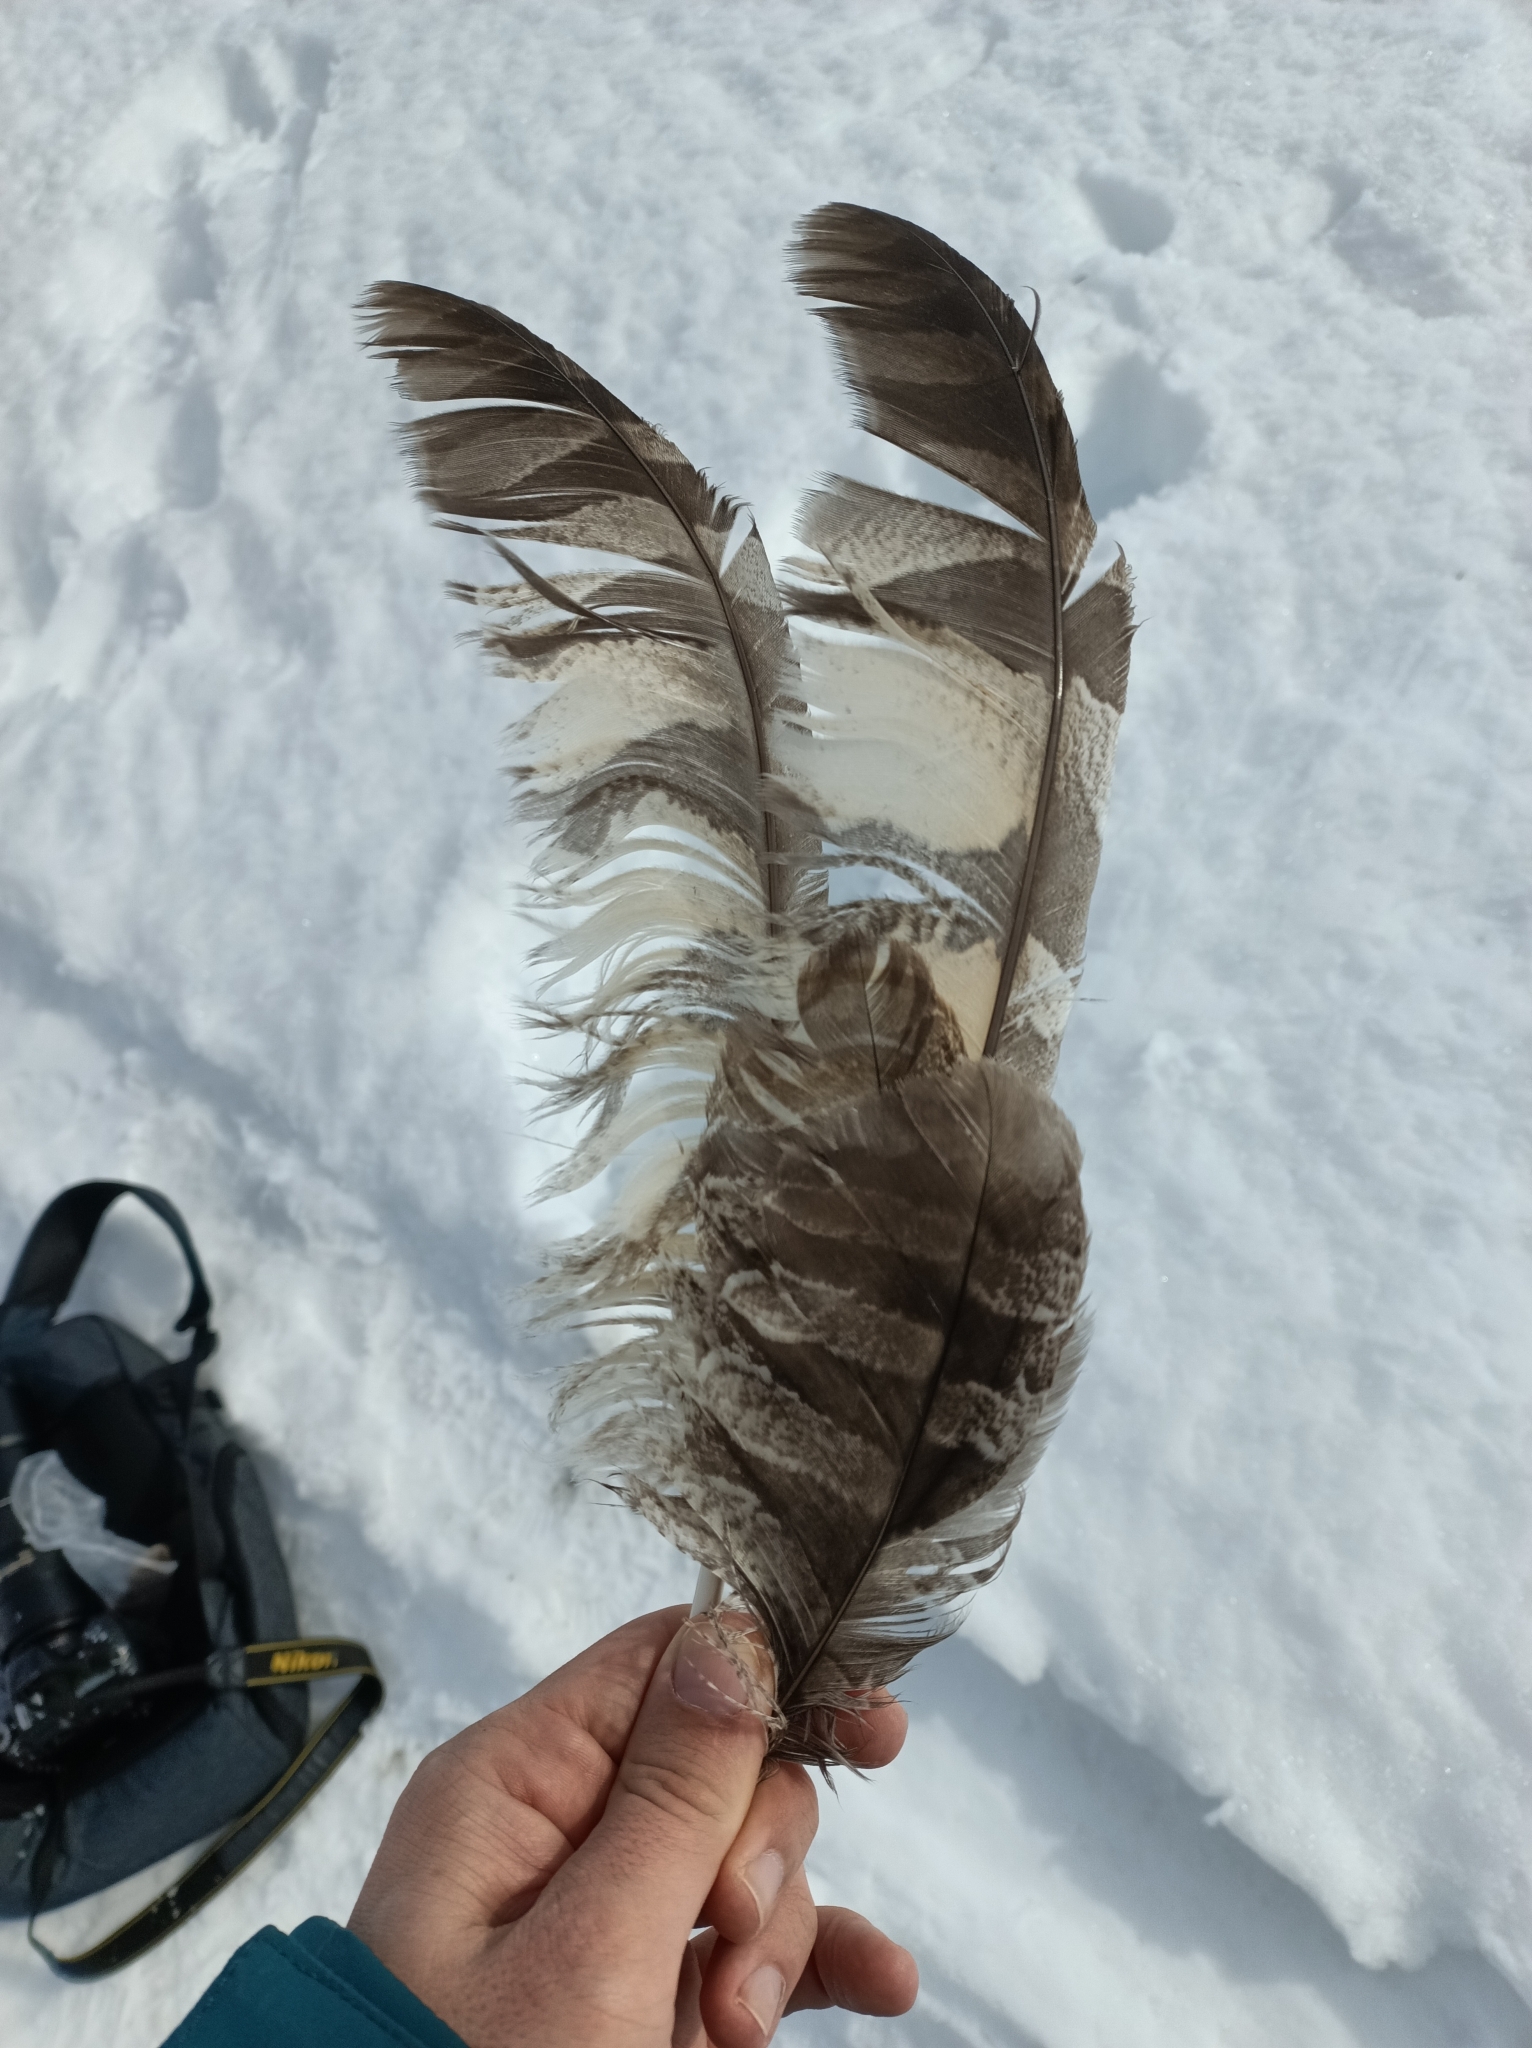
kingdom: Animalia
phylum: Chordata
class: Aves
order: Strigiformes
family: Strigidae
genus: Strix
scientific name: Strix nebulosa
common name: Great grey owl
